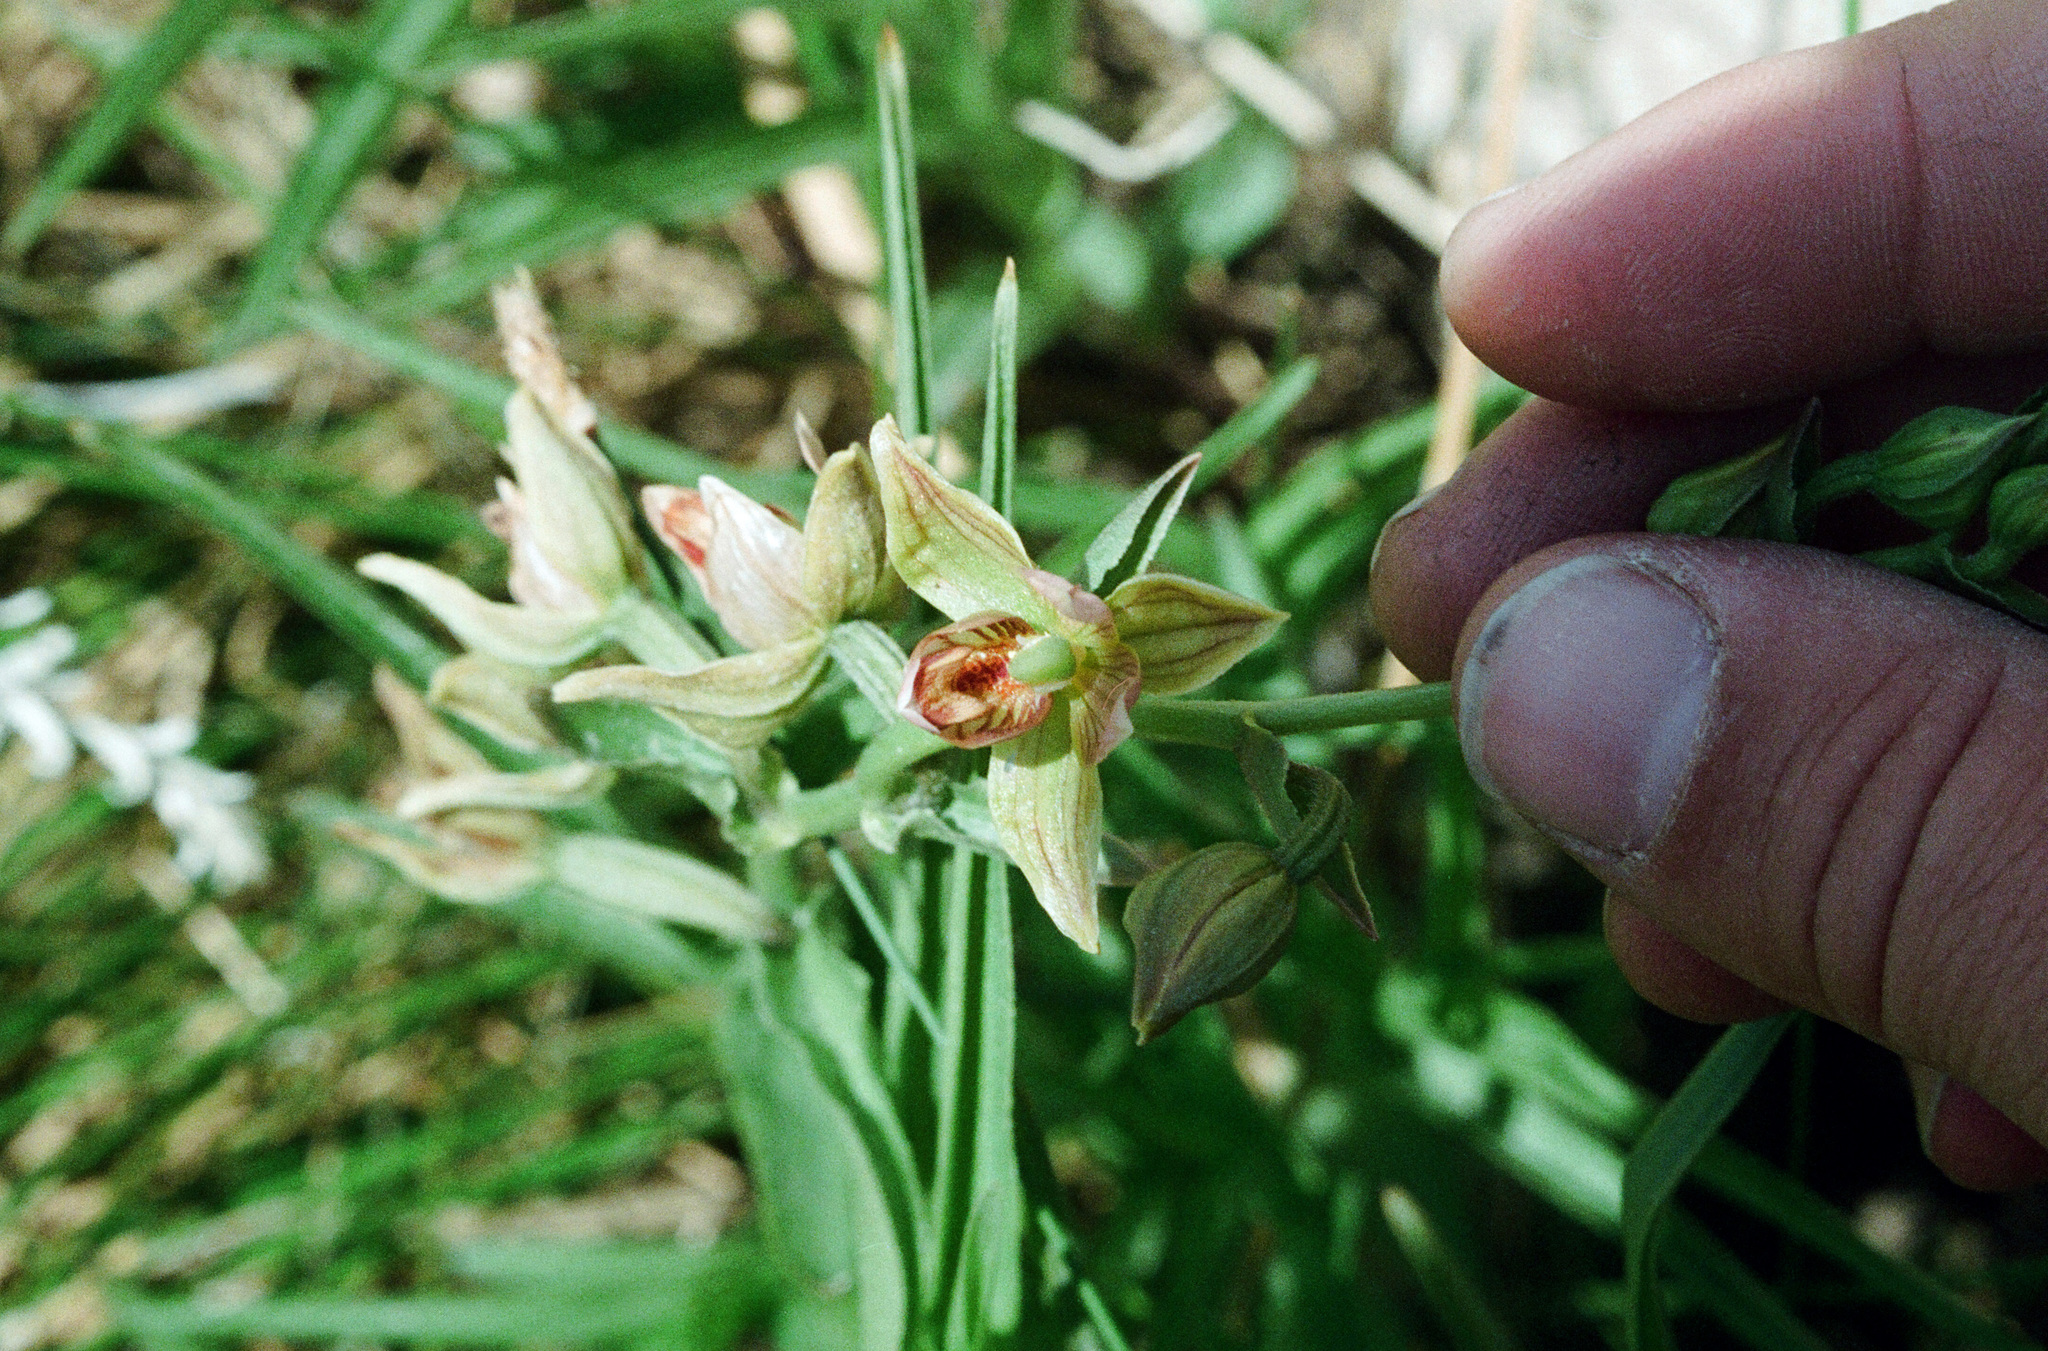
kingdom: Plantae
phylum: Tracheophyta
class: Liliopsida
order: Asparagales
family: Orchidaceae
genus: Epipactis
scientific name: Epipactis gigantea
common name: Chatterbox
